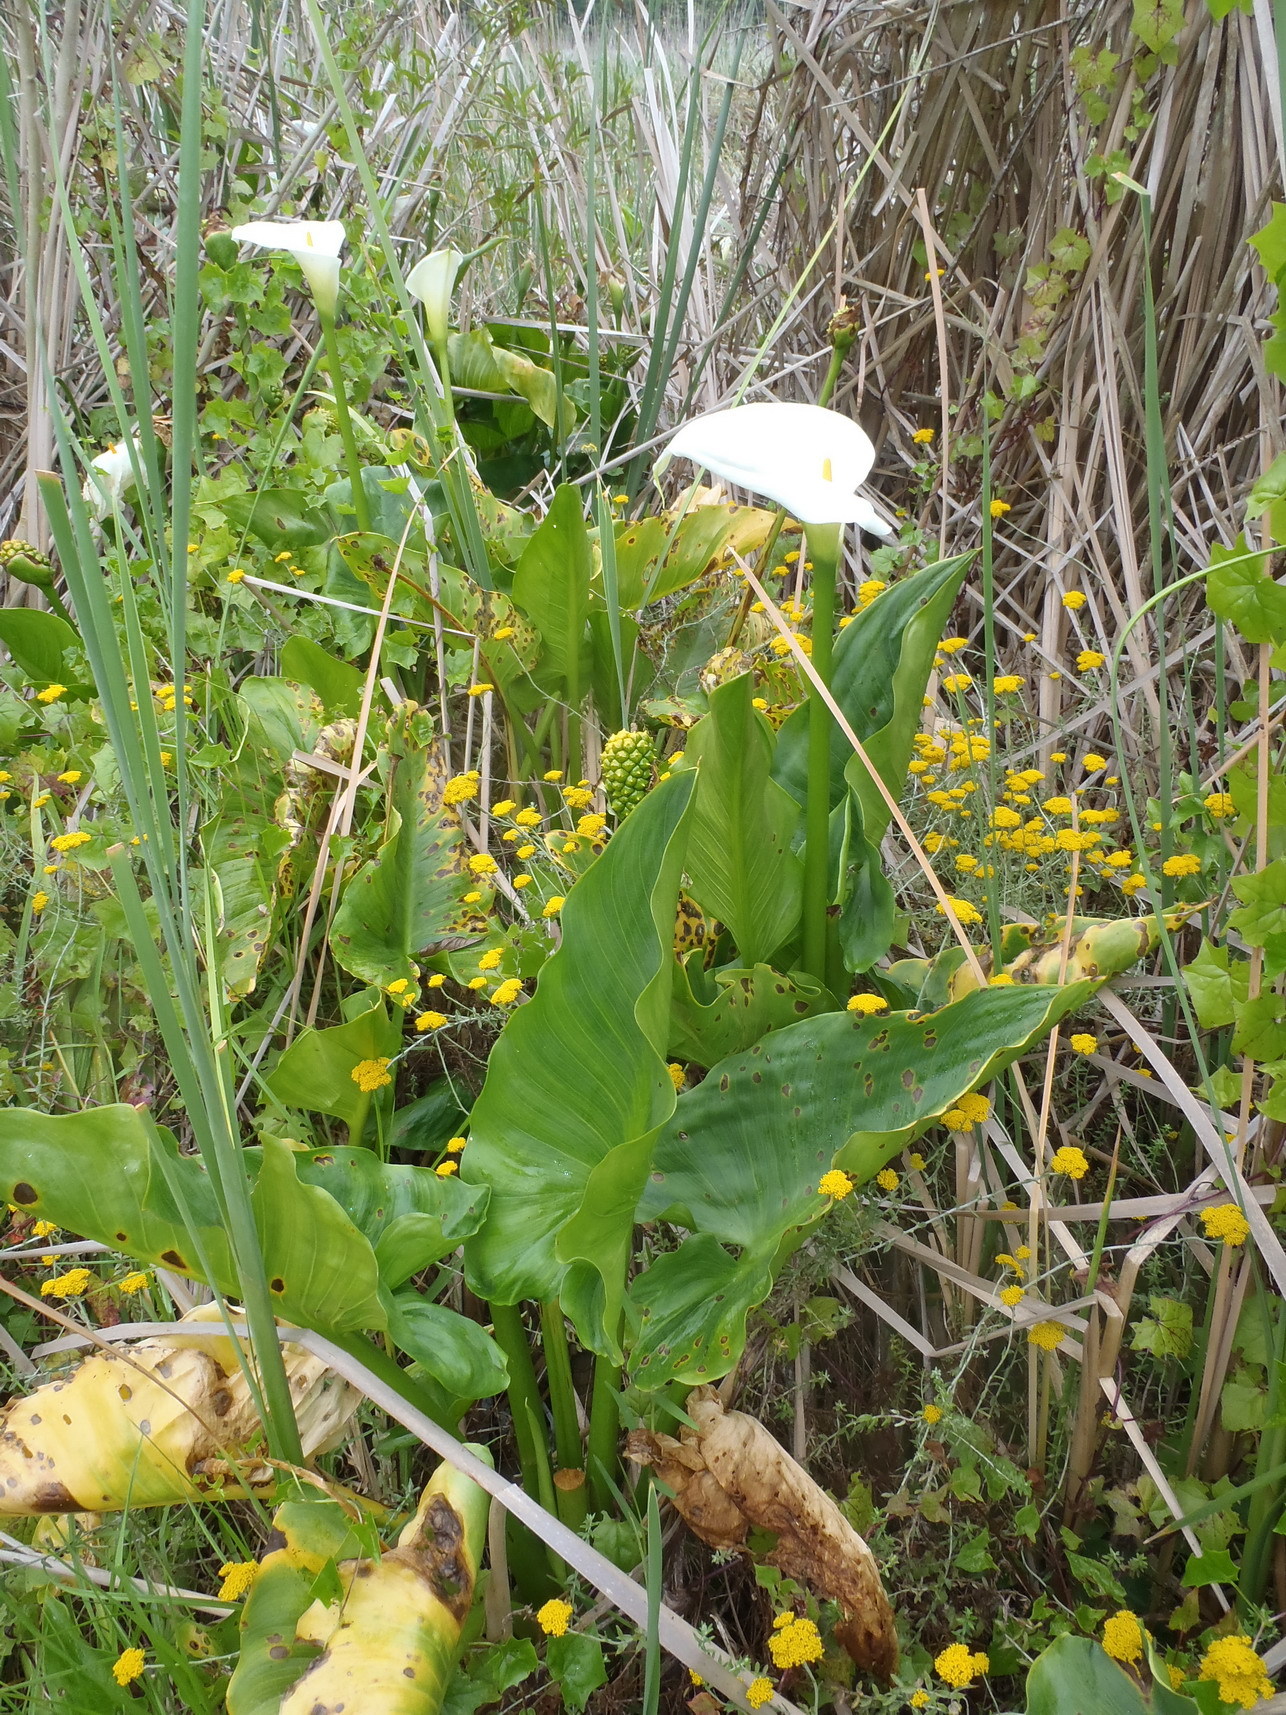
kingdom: Plantae
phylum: Tracheophyta
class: Liliopsida
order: Alismatales
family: Araceae
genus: Zantedeschia
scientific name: Zantedeschia aethiopica
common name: Altar-lily
